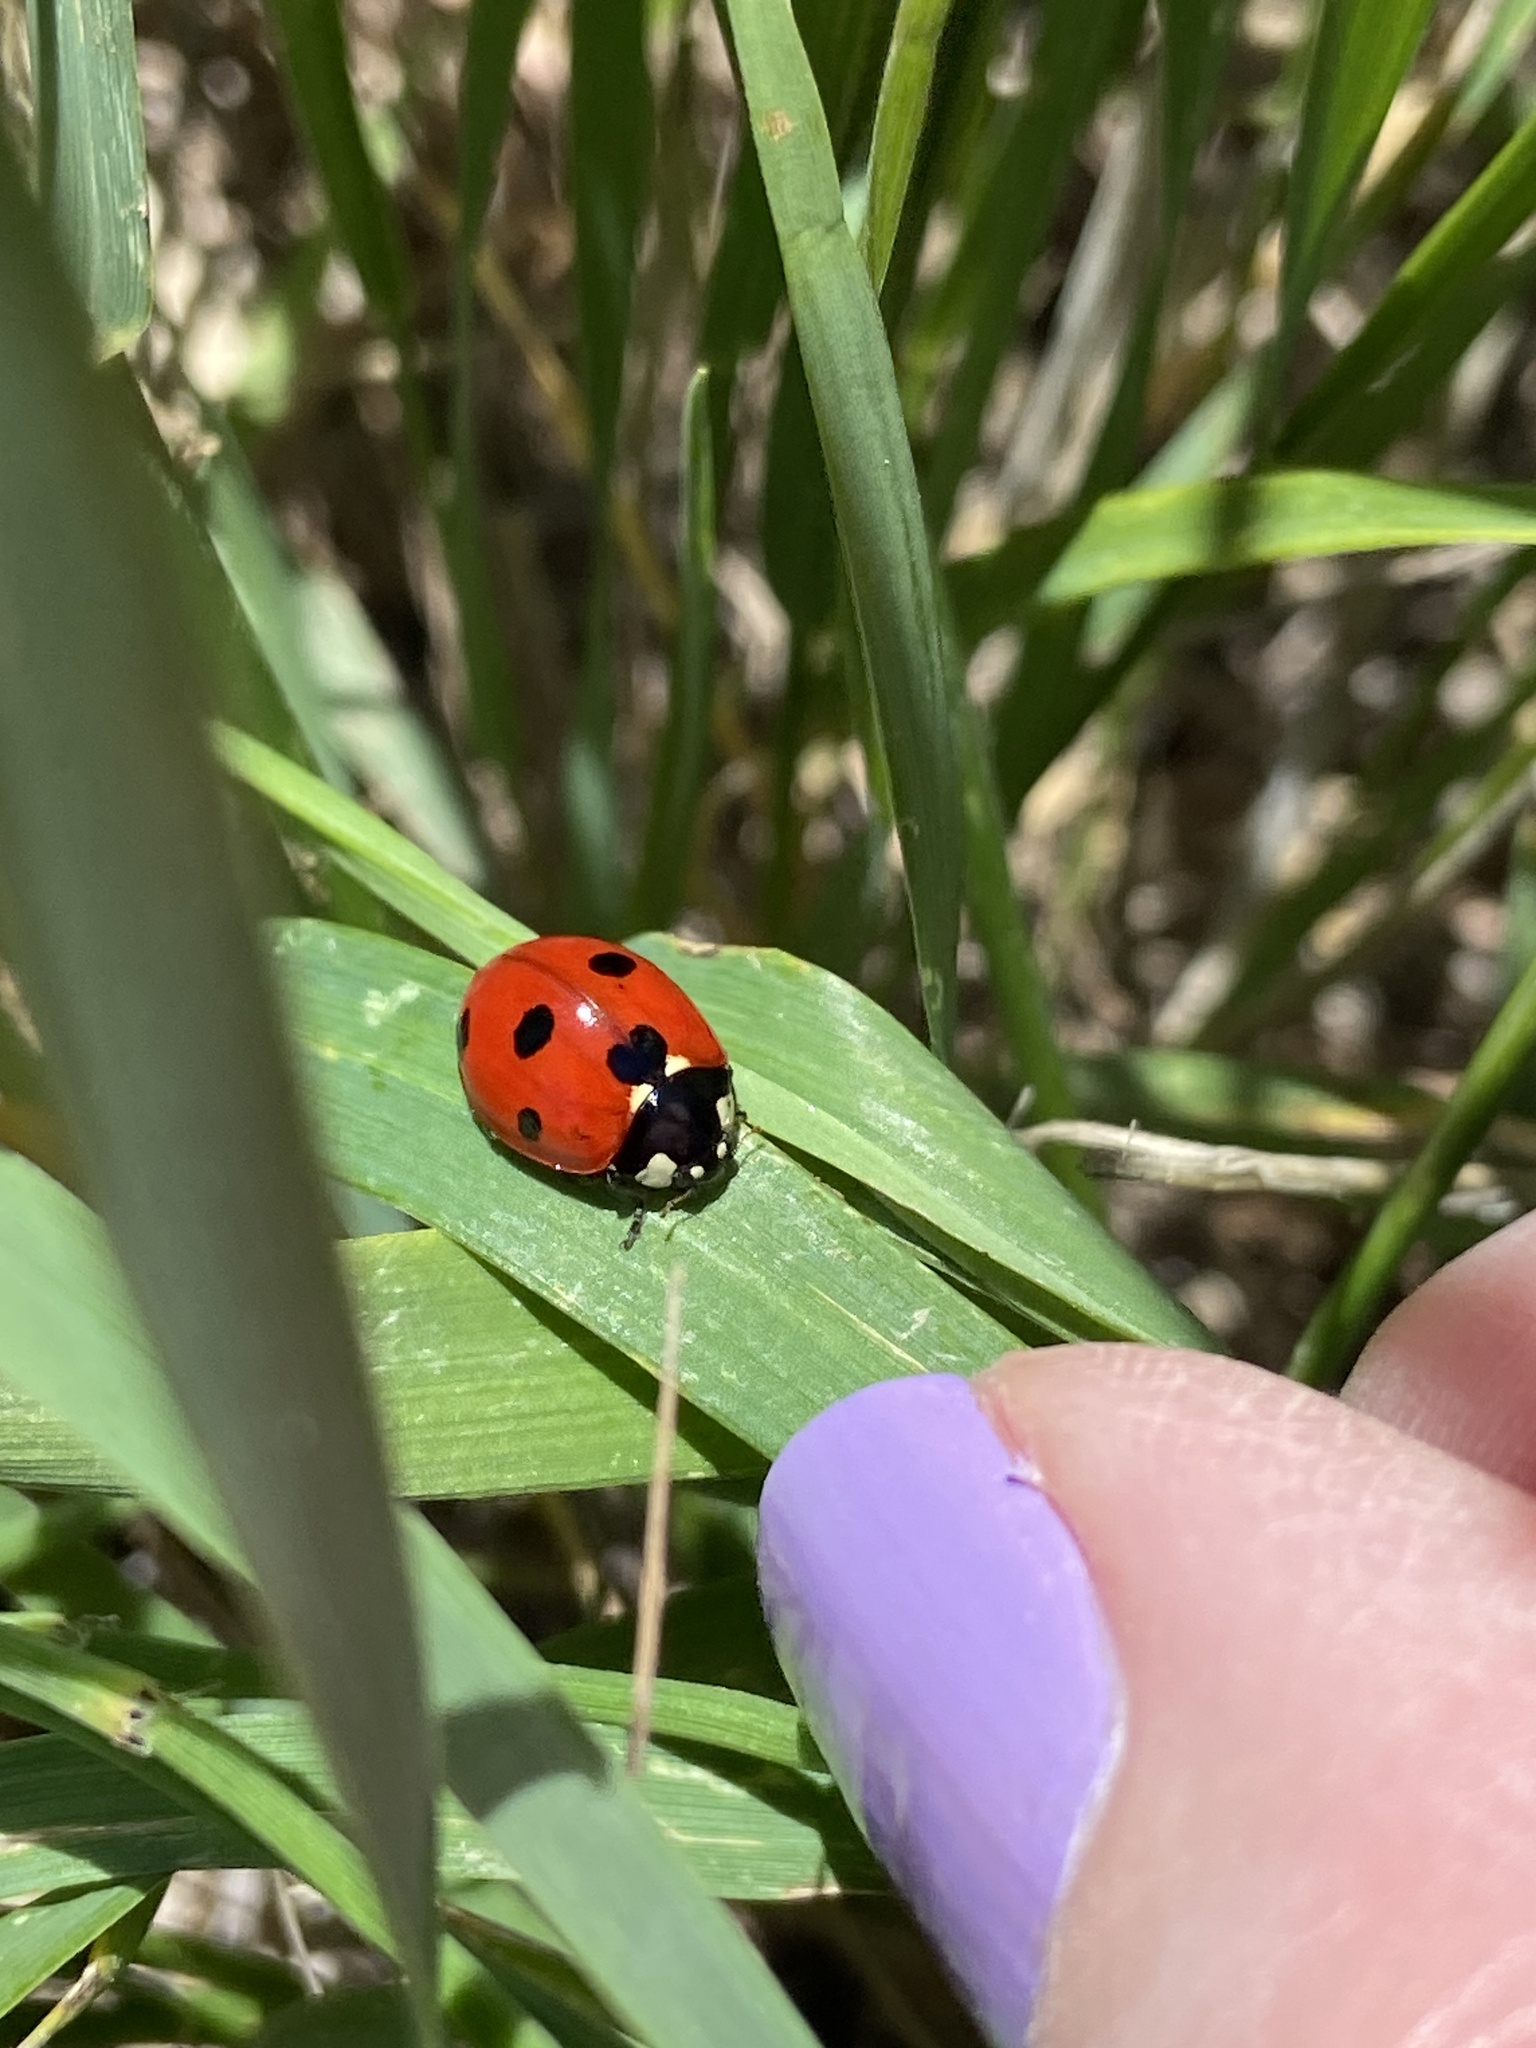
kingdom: Animalia
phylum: Arthropoda
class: Insecta
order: Coleoptera
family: Coccinellidae
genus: Coccinella
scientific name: Coccinella septempunctata
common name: Sevenspotted lady beetle
